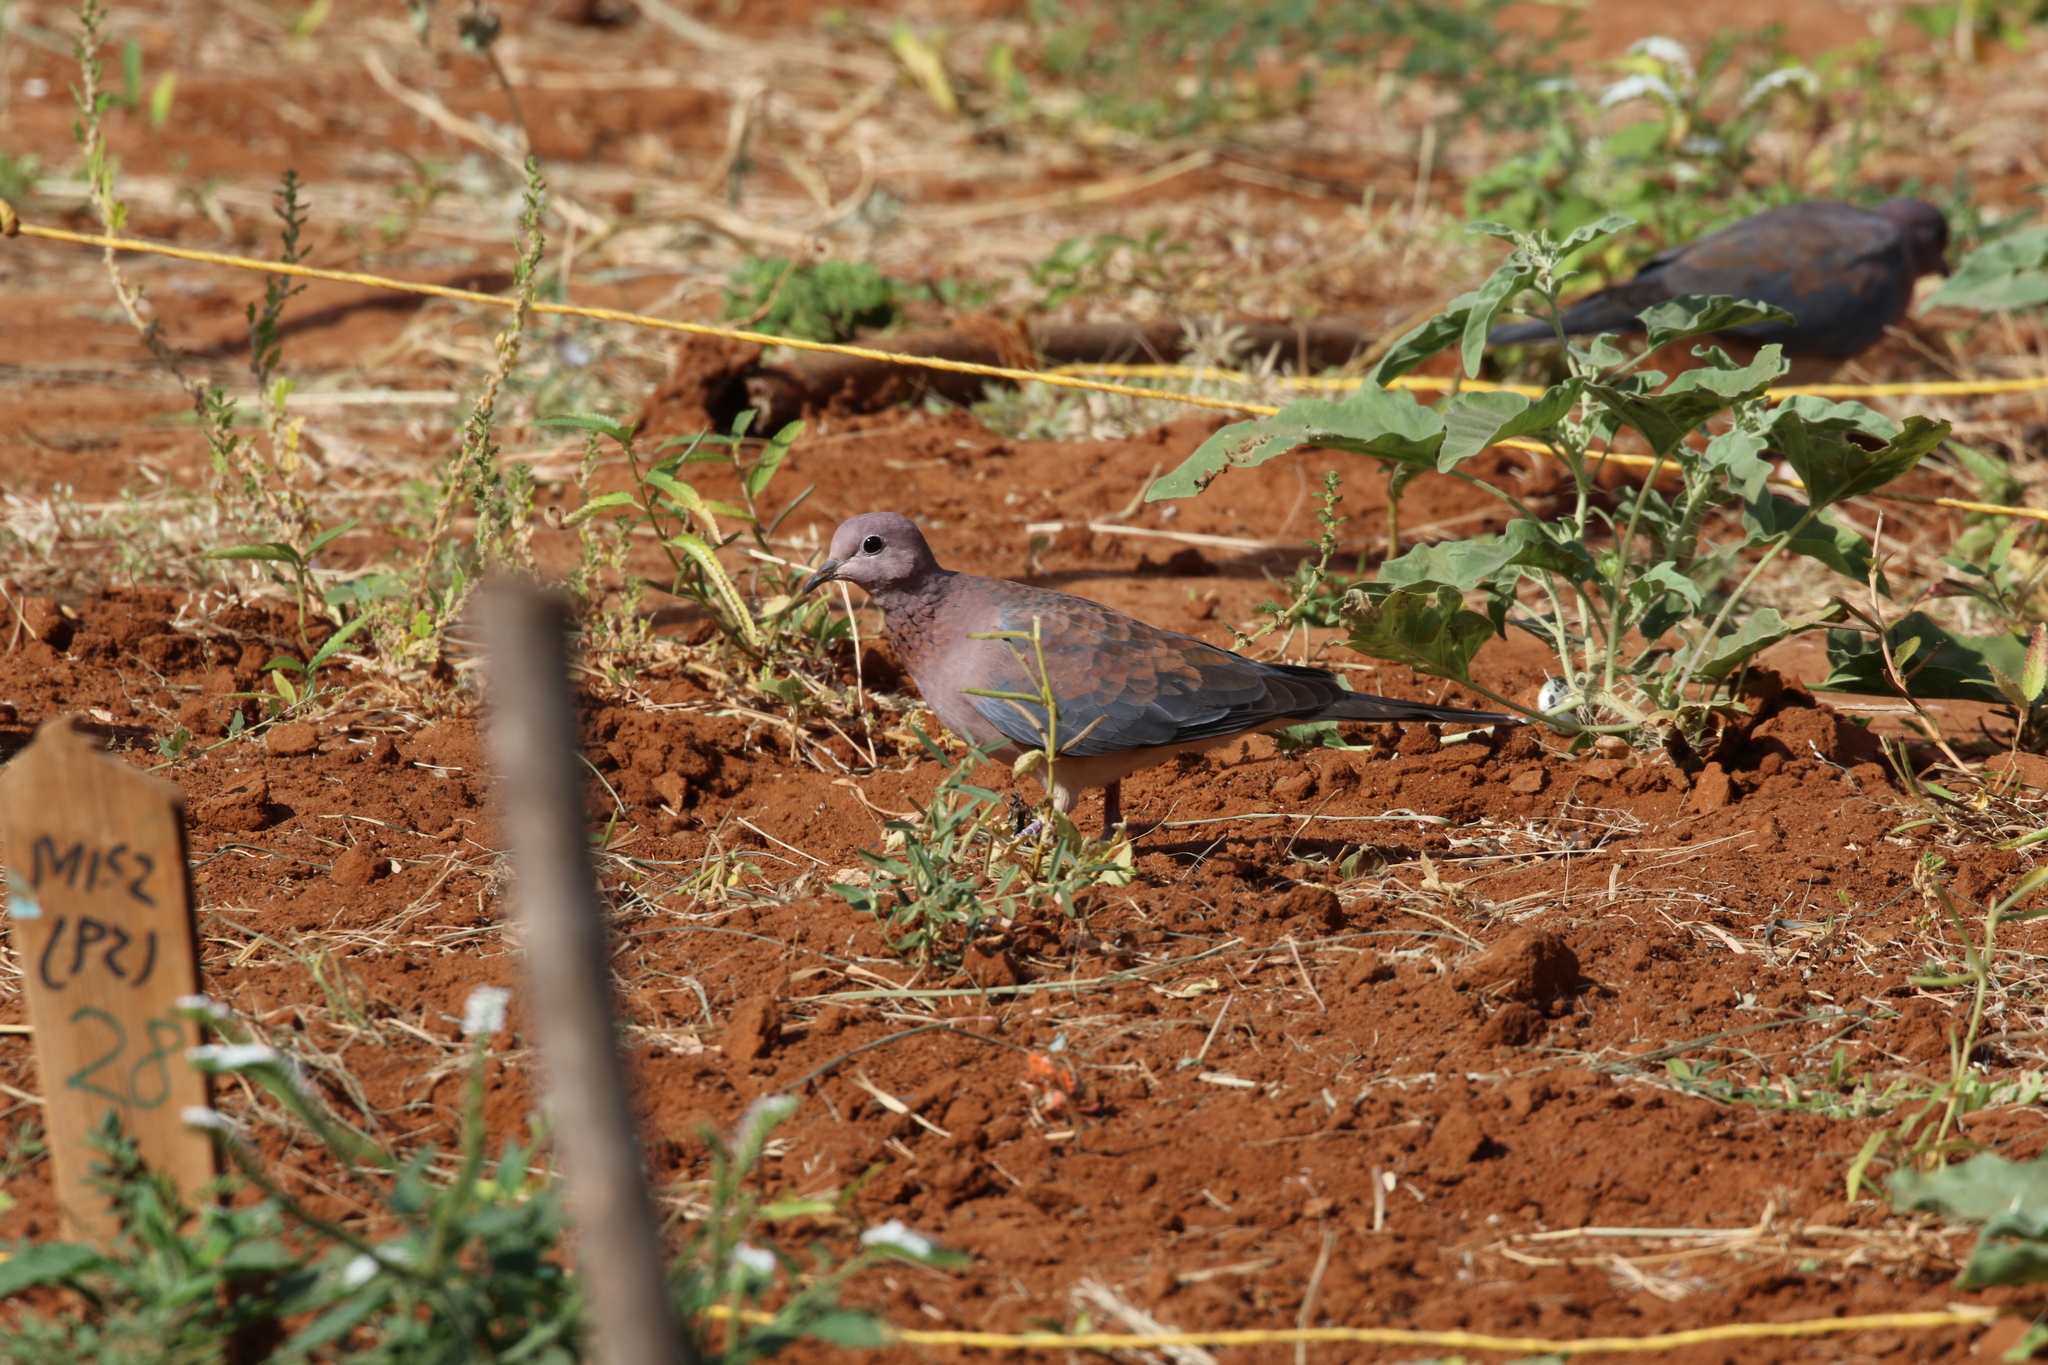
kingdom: Animalia
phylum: Chordata
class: Aves
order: Columbiformes
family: Columbidae
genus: Spilopelia
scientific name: Spilopelia senegalensis
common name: Laughing dove
